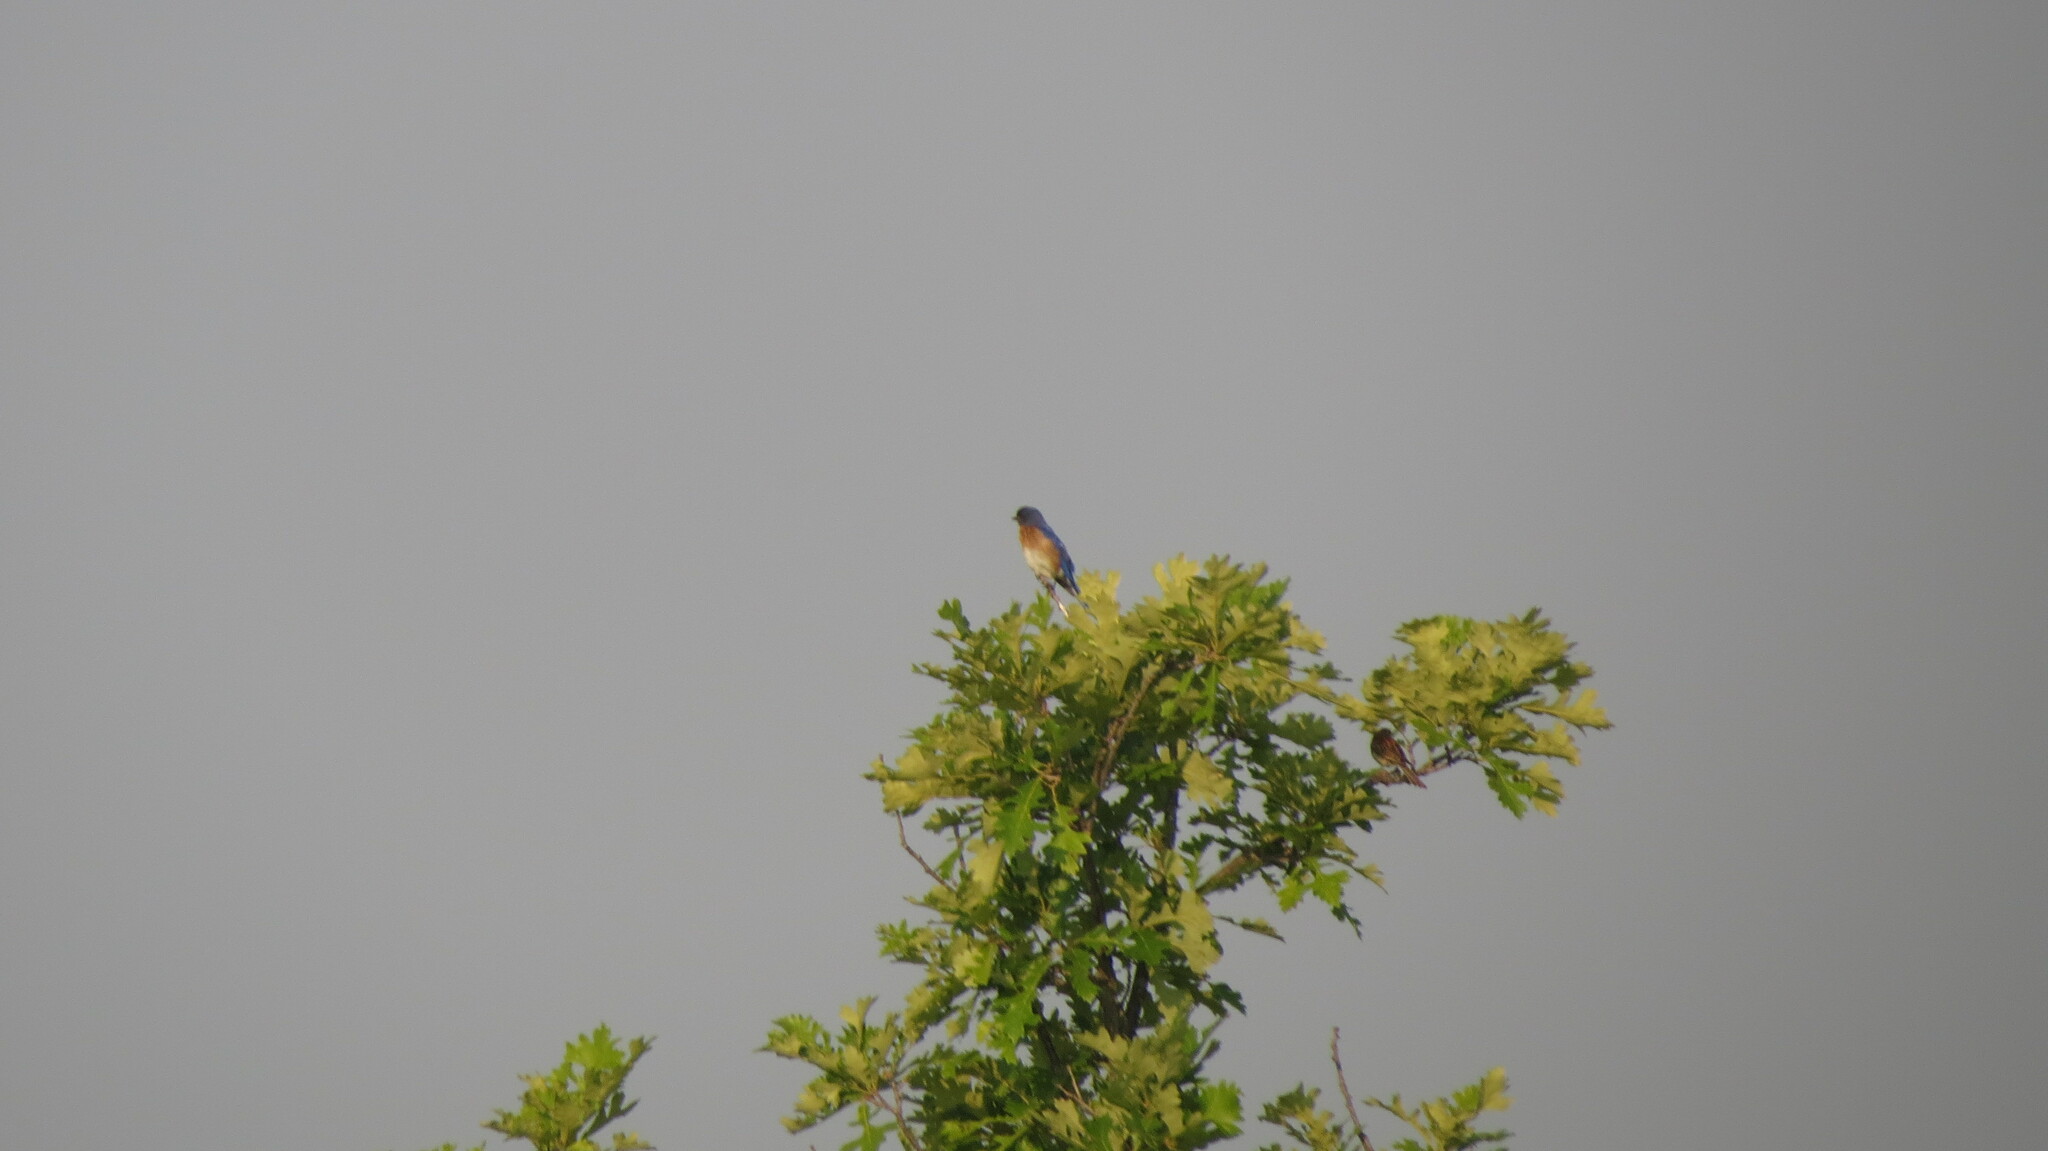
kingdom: Animalia
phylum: Chordata
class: Aves
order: Passeriformes
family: Turdidae
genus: Sialia
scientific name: Sialia sialis
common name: Eastern bluebird
